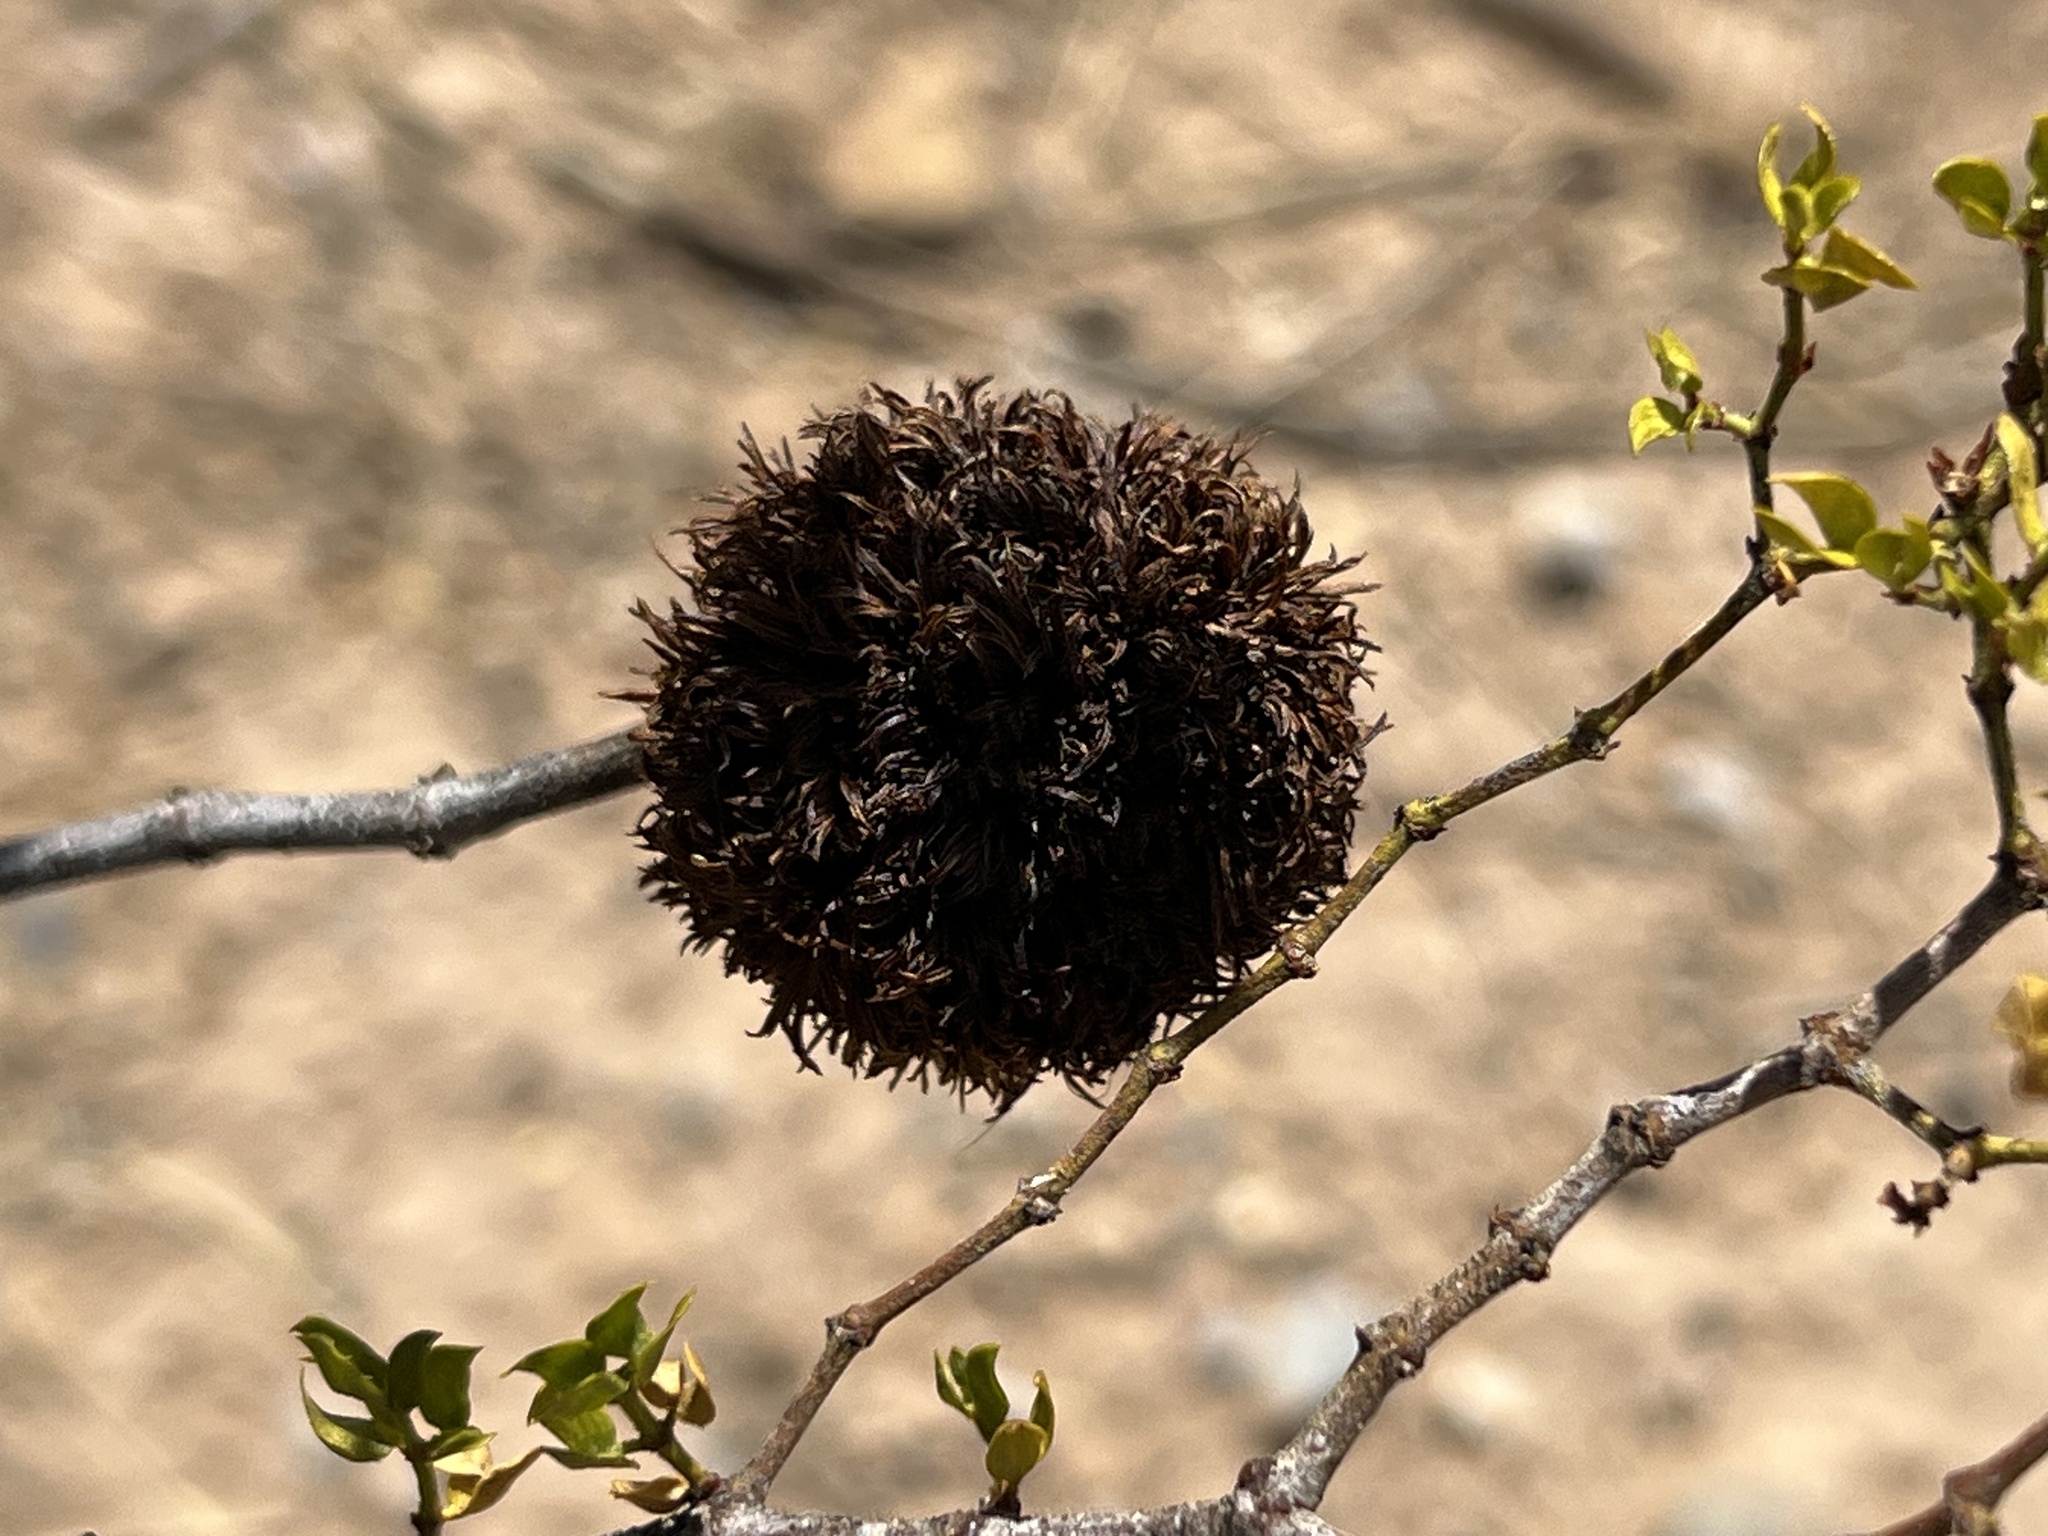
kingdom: Animalia
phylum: Arthropoda
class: Insecta
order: Diptera
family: Cecidomyiidae
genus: Asphondylia
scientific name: Asphondylia auripila
